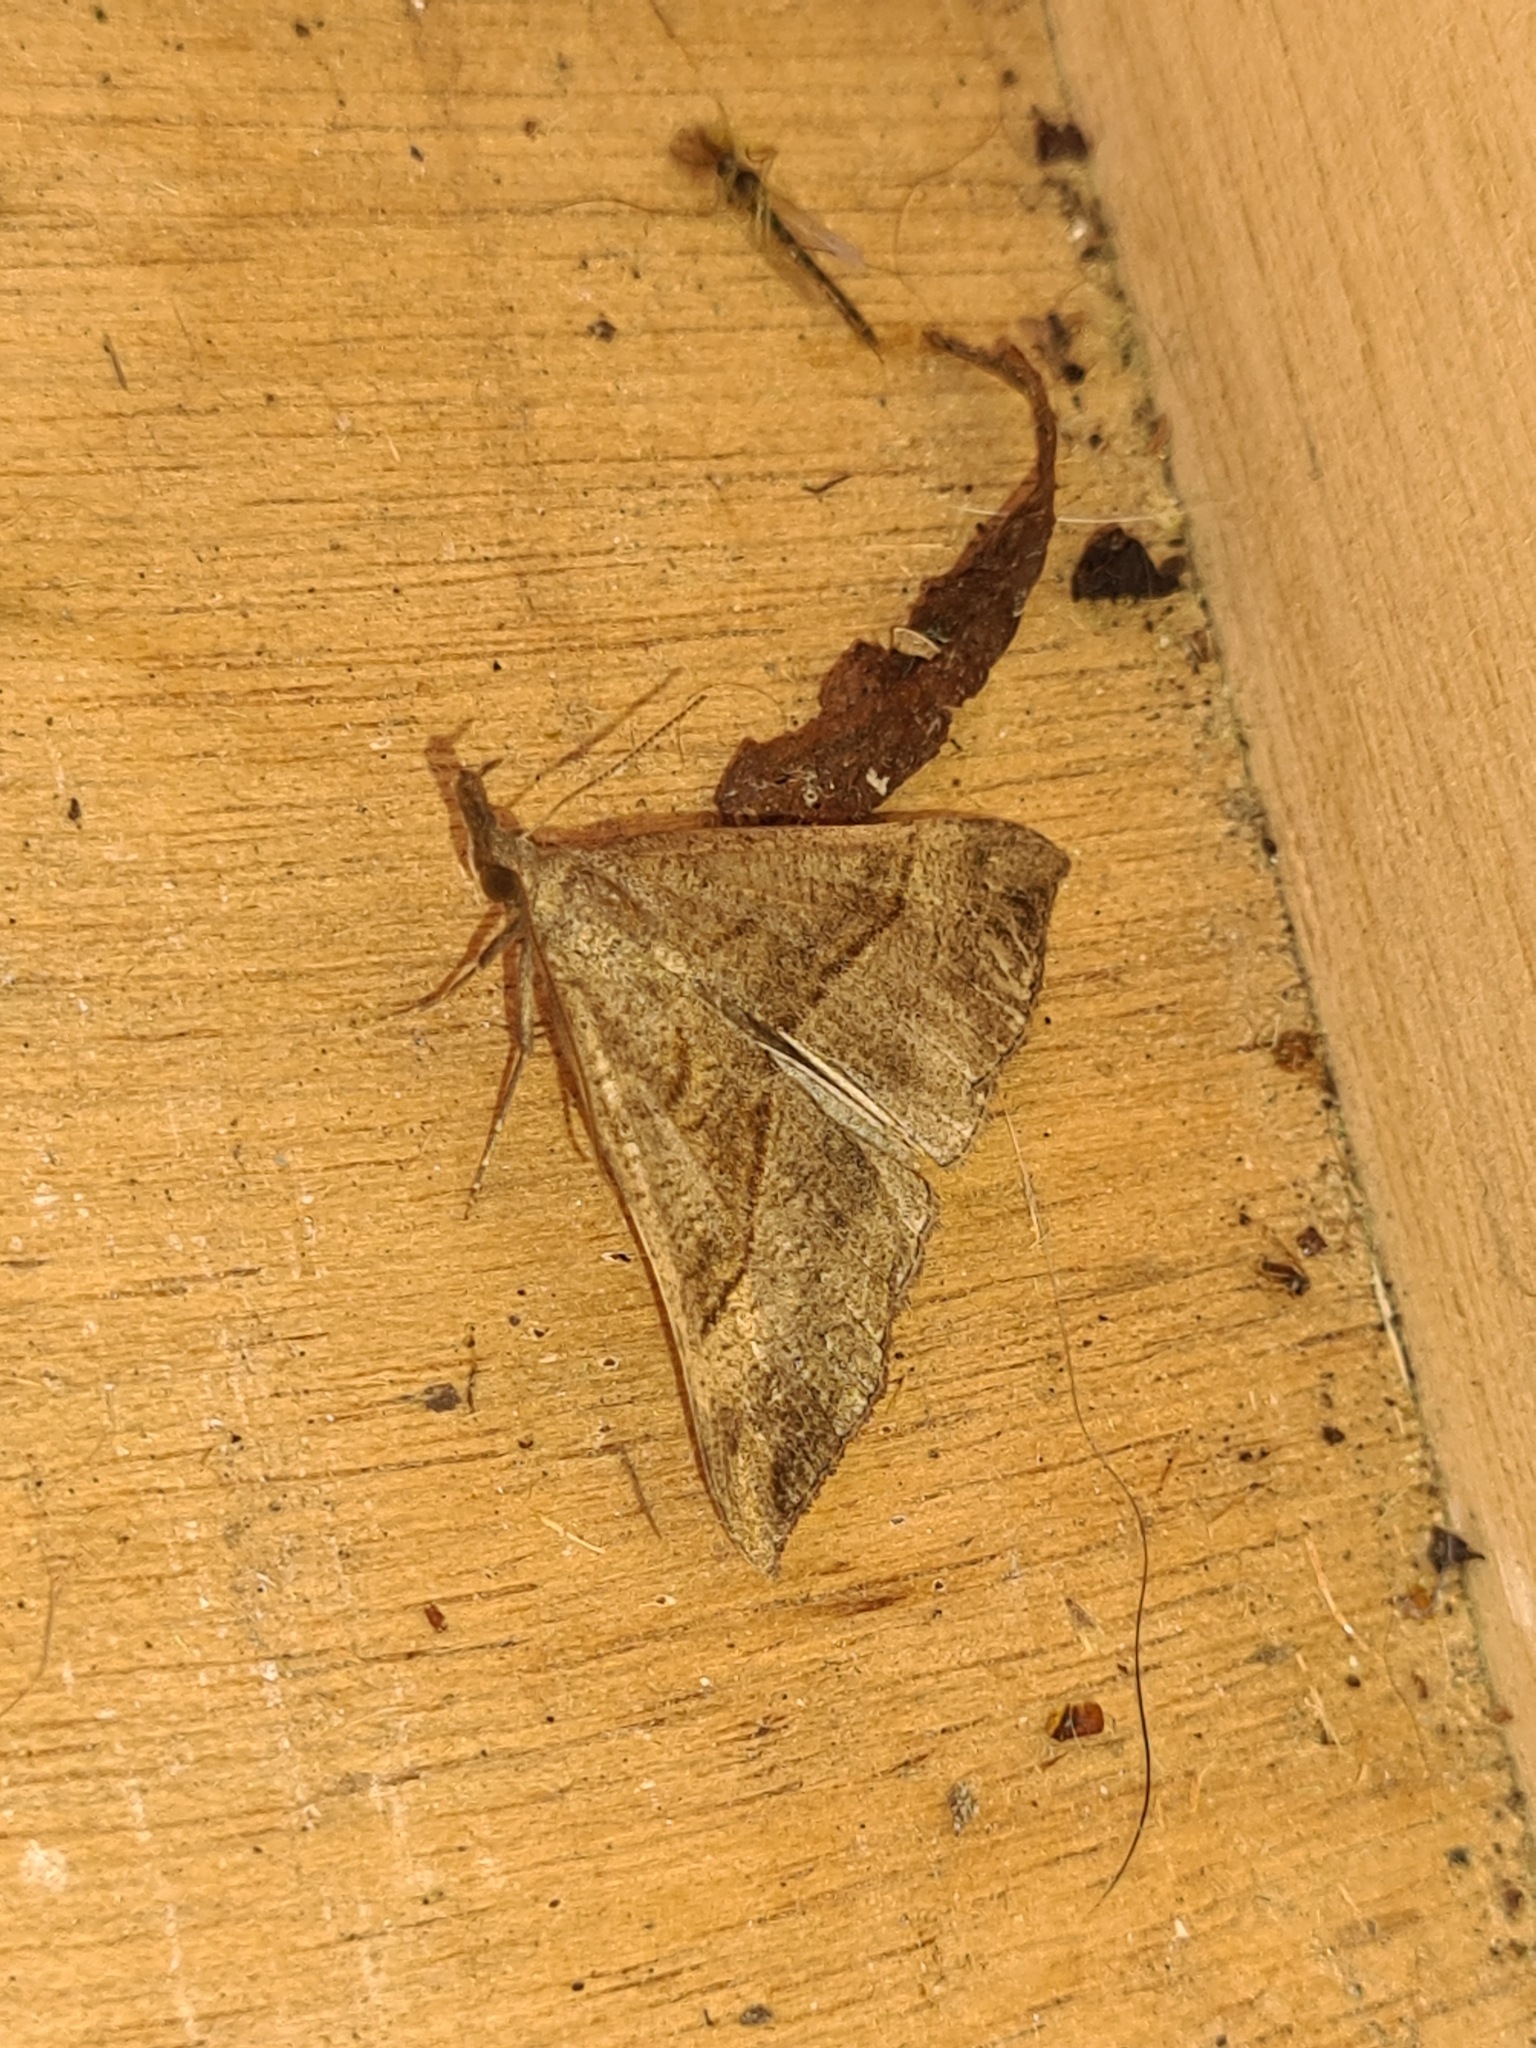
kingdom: Animalia
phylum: Arthropoda
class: Insecta
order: Lepidoptera
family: Erebidae
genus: Hypena
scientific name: Hypena proboscidalis
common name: Snout
